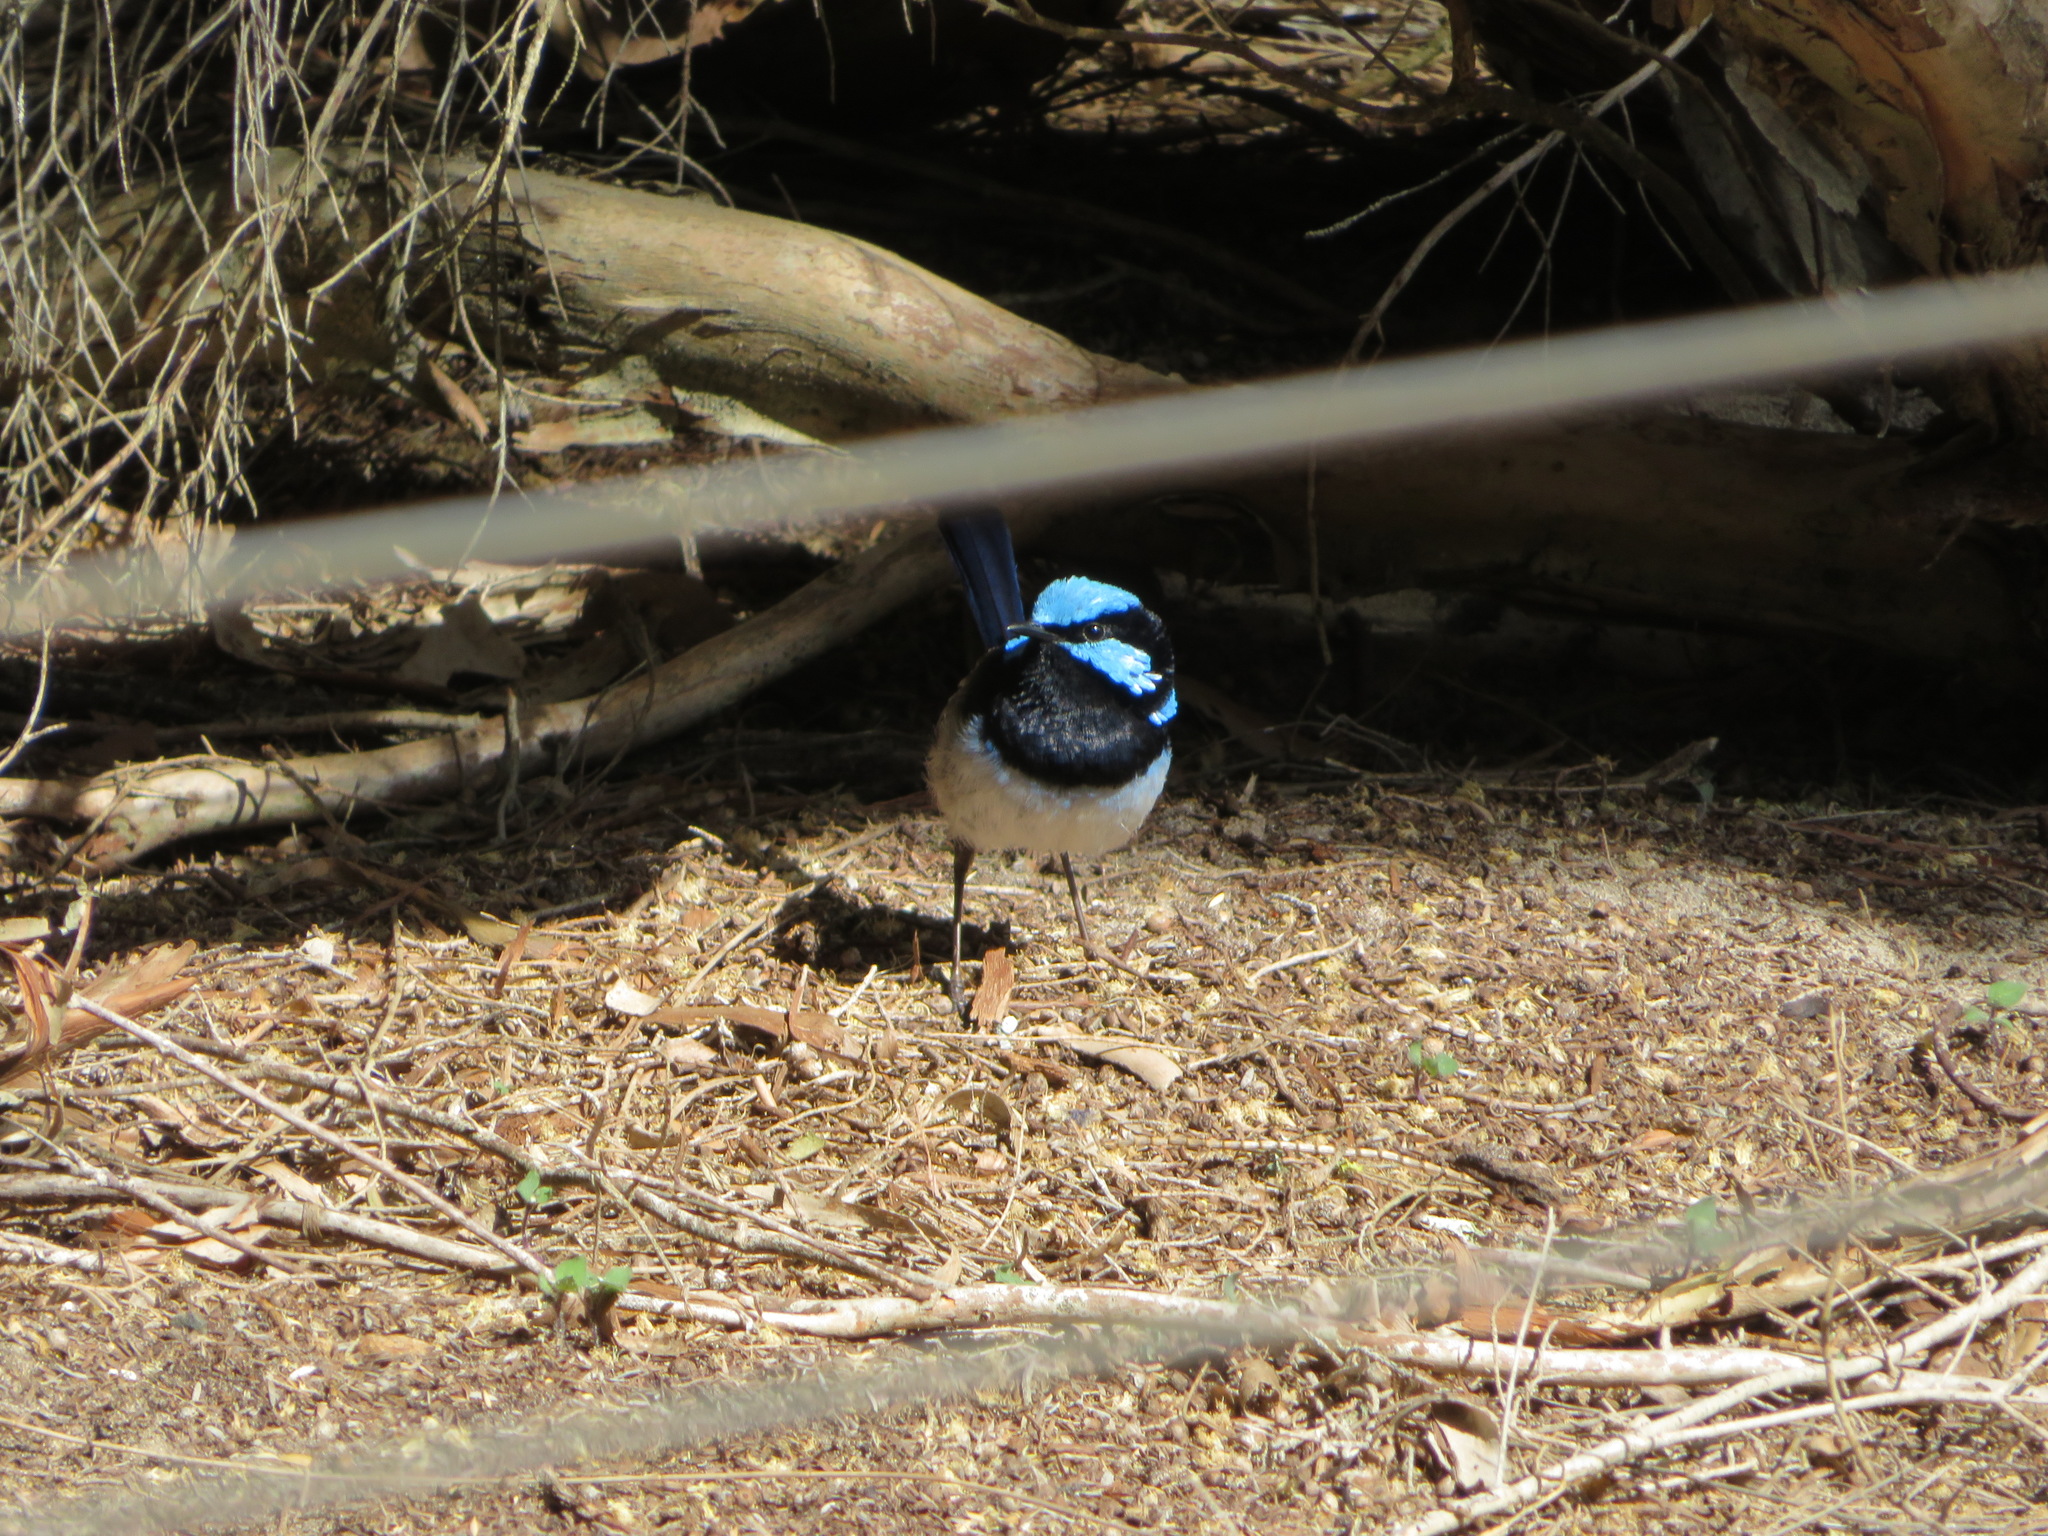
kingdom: Animalia
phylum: Chordata
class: Aves
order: Passeriformes
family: Maluridae
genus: Malurus
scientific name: Malurus cyaneus
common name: Superb fairywren
